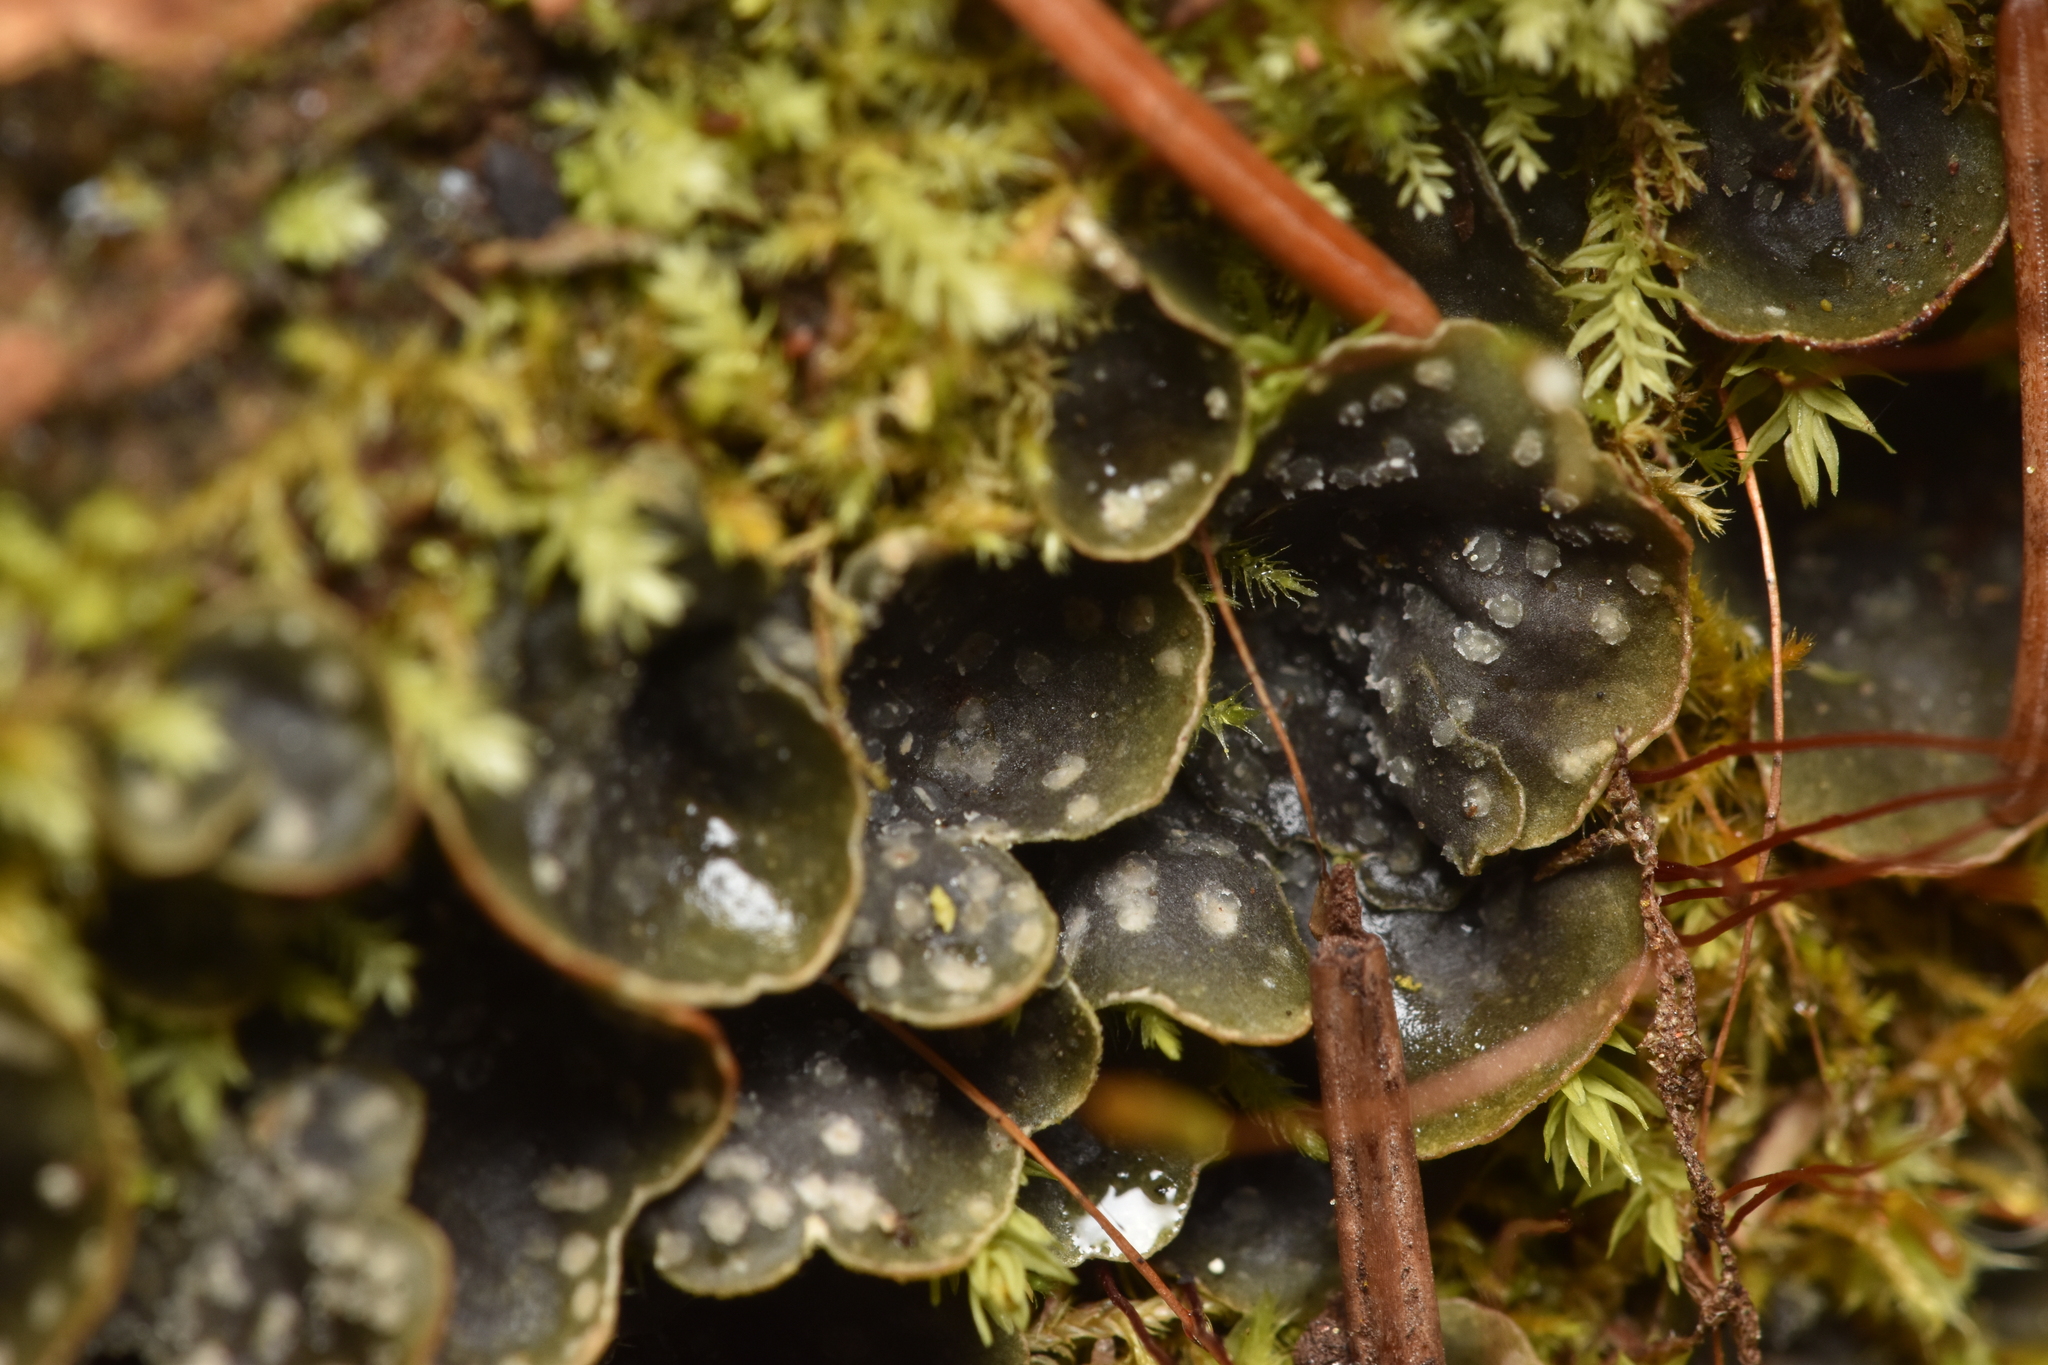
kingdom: Fungi
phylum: Ascomycota
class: Lecanoromycetes
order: Peltigerales
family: Peltigeraceae
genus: Peltigera
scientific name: Peltigera didactyla
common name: Alternating dog lichen
